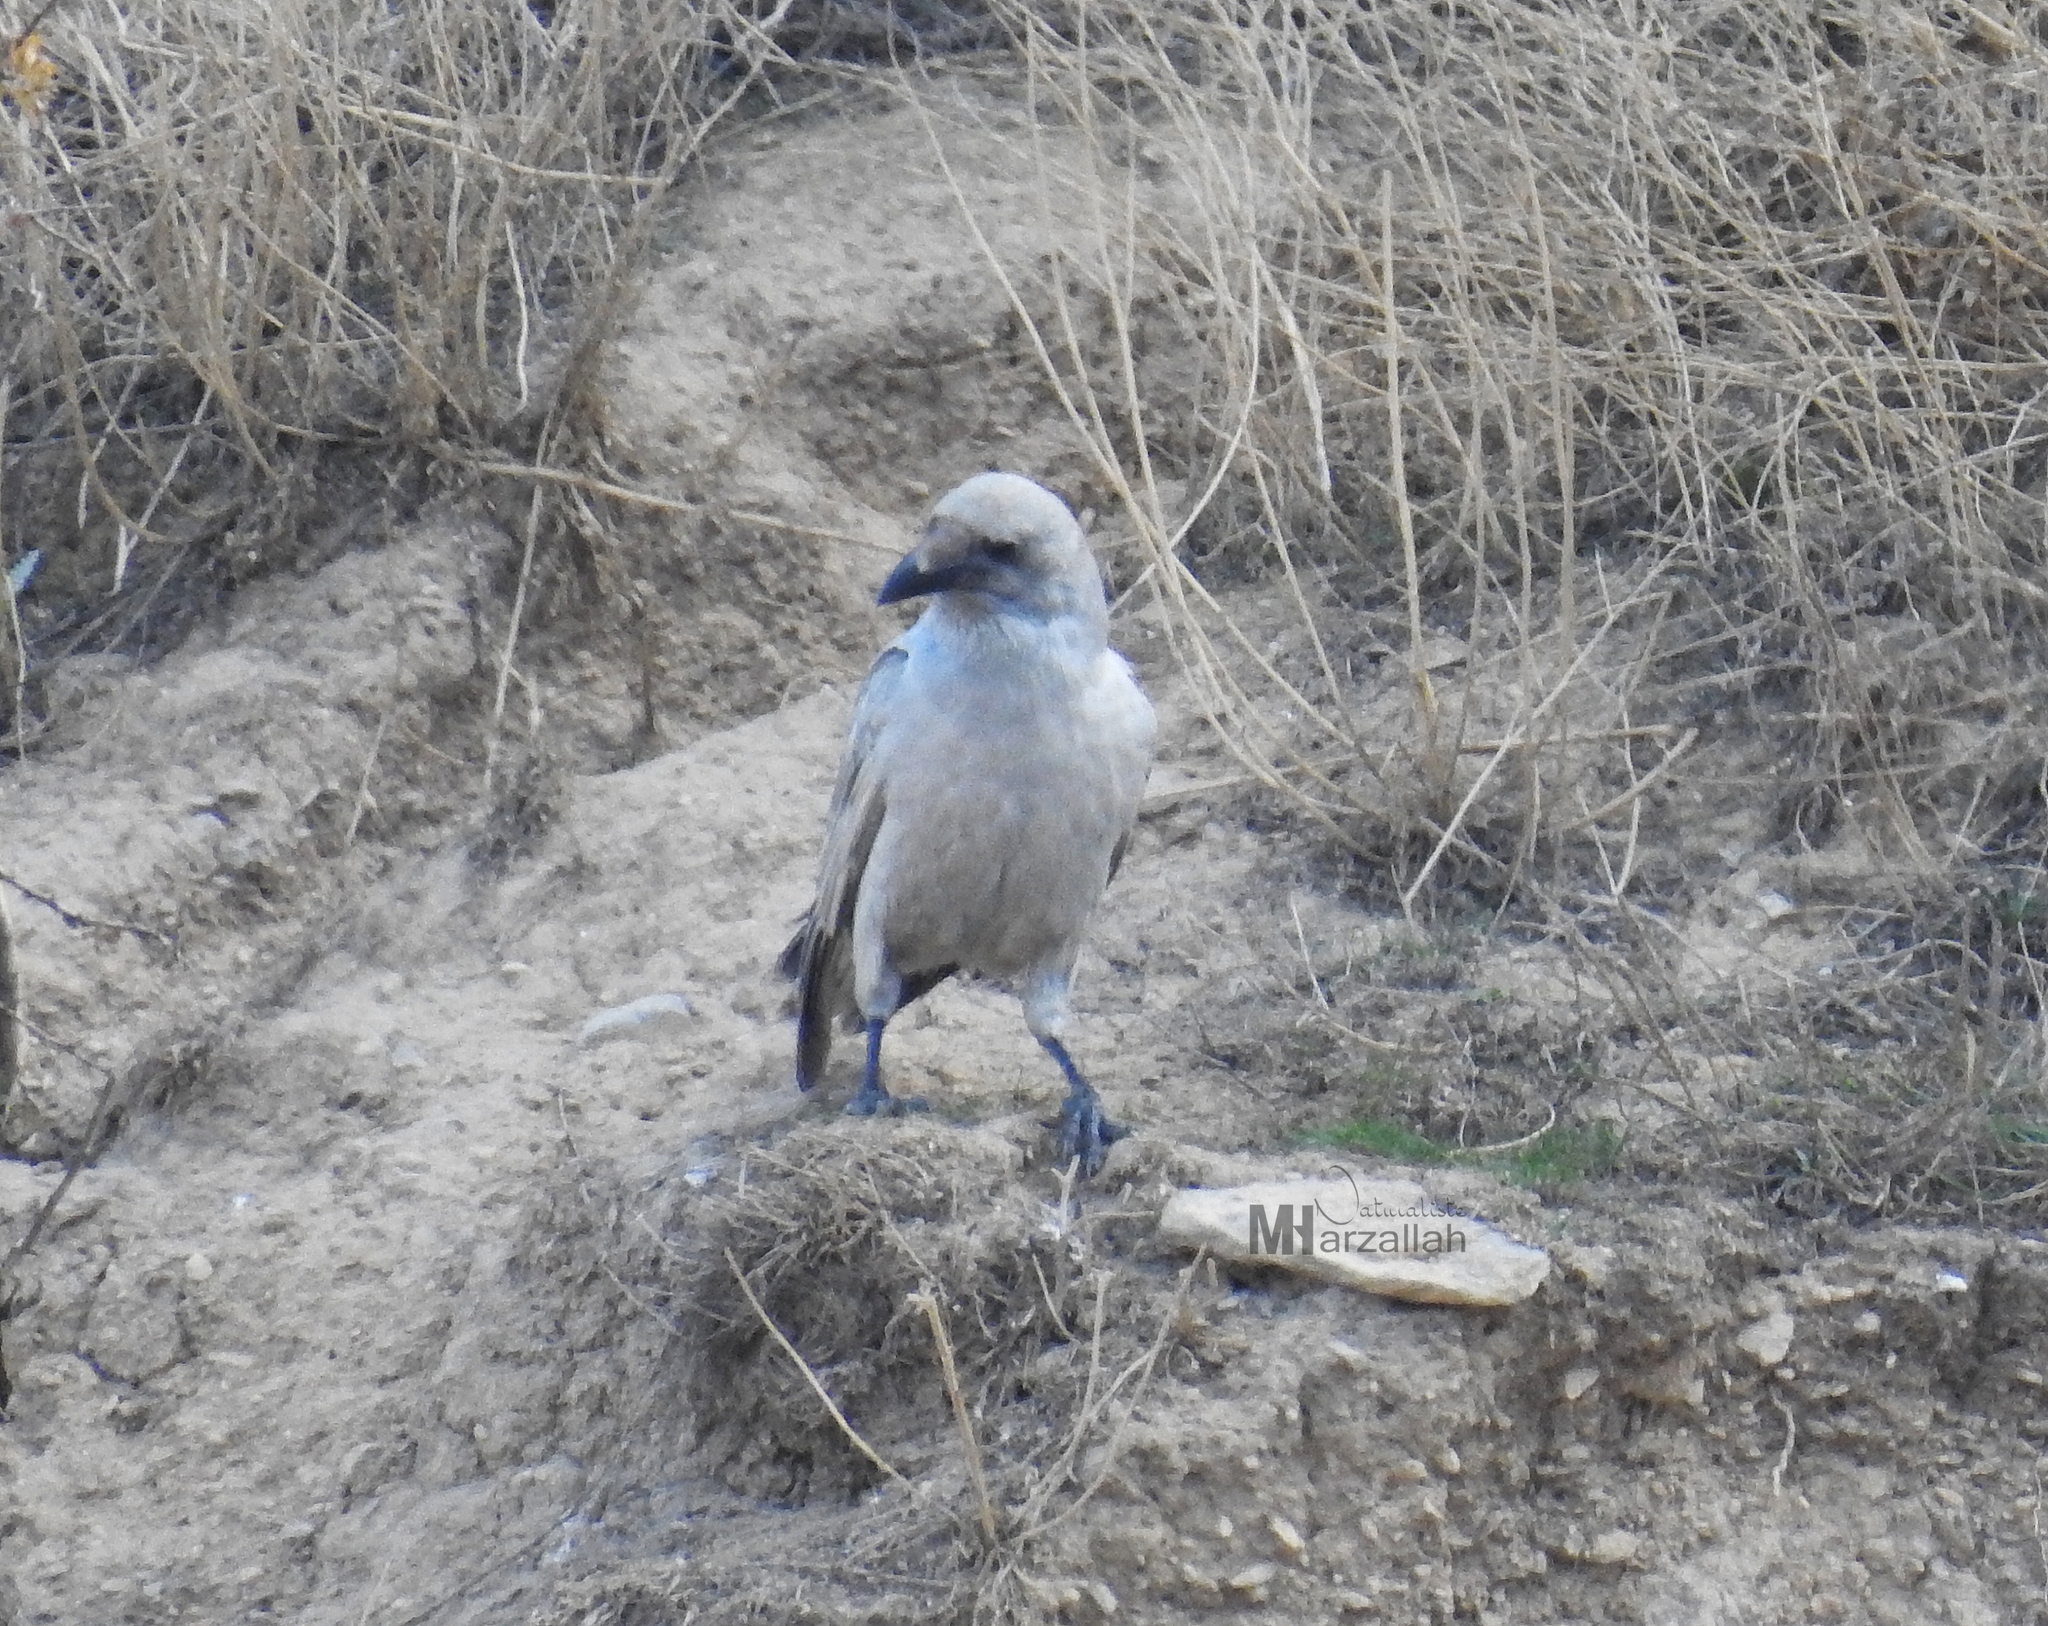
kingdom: Animalia
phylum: Chordata
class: Aves
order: Passeriformes
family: Corvidae
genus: Corvus
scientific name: Corvus corax
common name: Common raven
